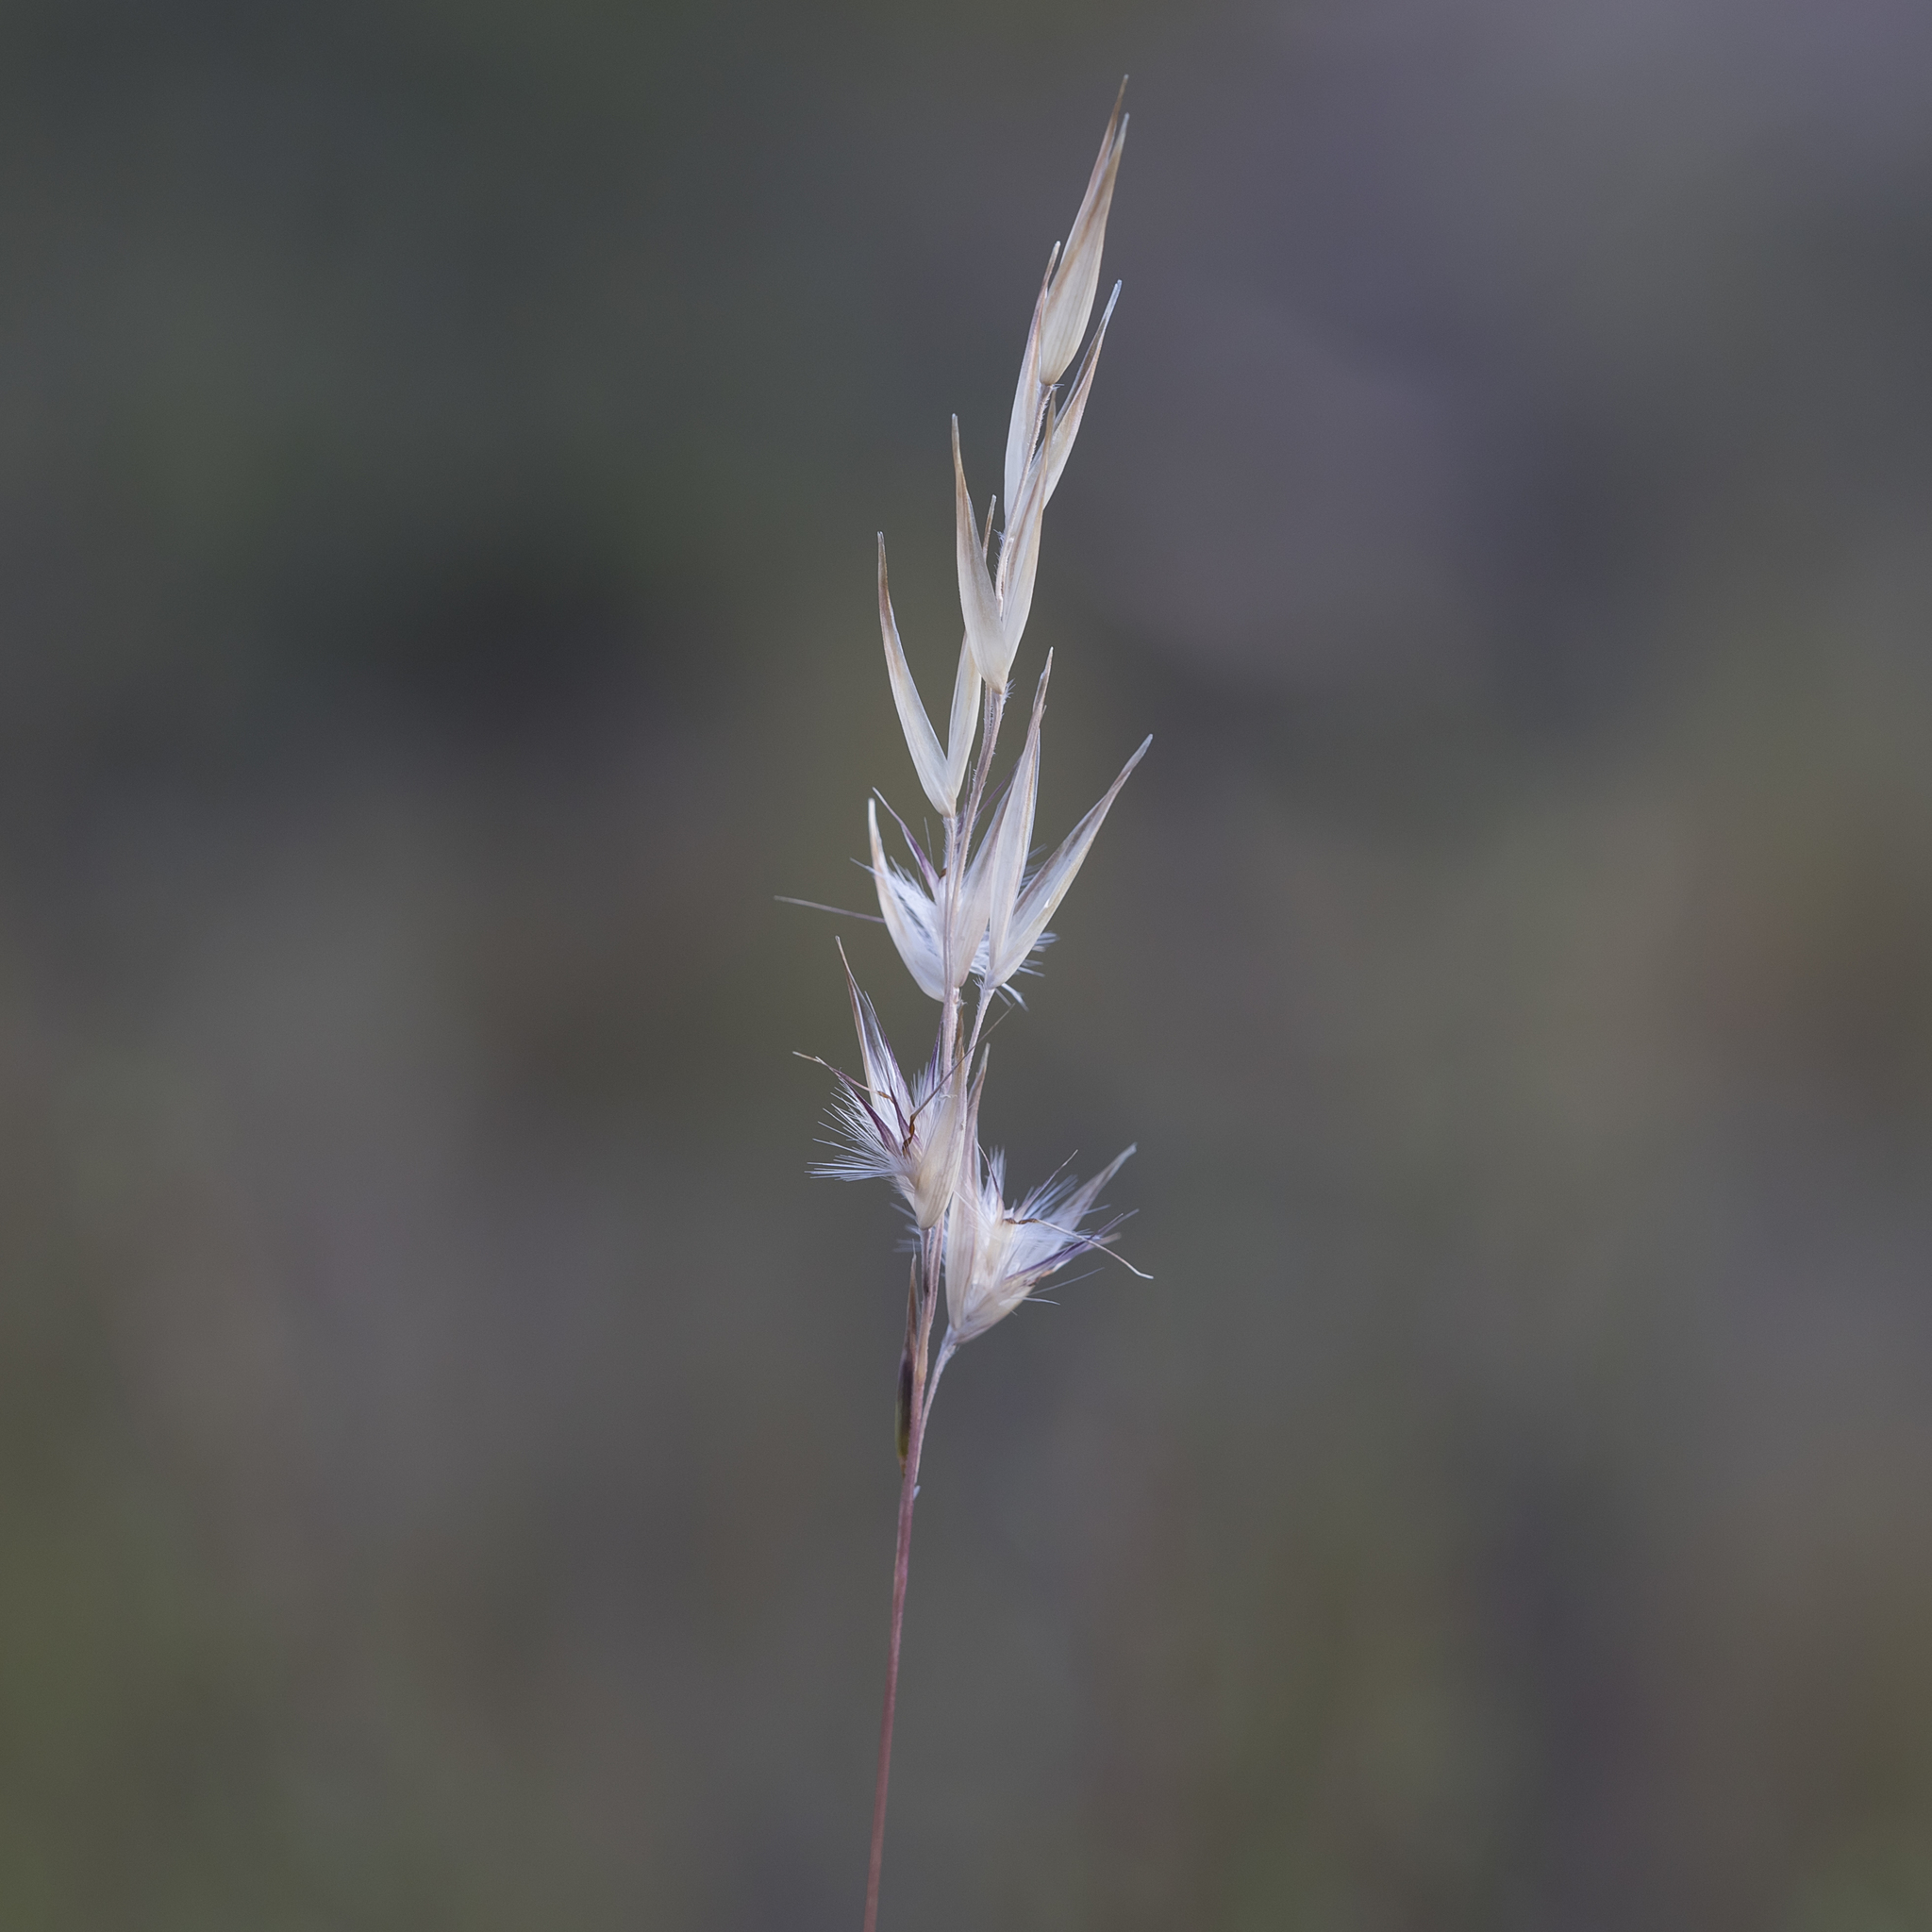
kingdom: Plantae
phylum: Tracheophyta
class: Liliopsida
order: Poales
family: Poaceae
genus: Rytidosperma
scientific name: Rytidosperma tenuius
